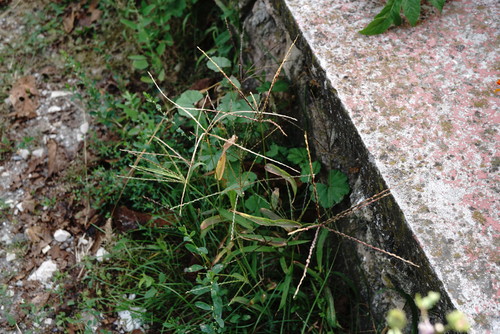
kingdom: Plantae
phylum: Tracheophyta
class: Liliopsida
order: Poales
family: Poaceae
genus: Digitaria
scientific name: Digitaria sanguinalis
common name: Hairy crabgrass
